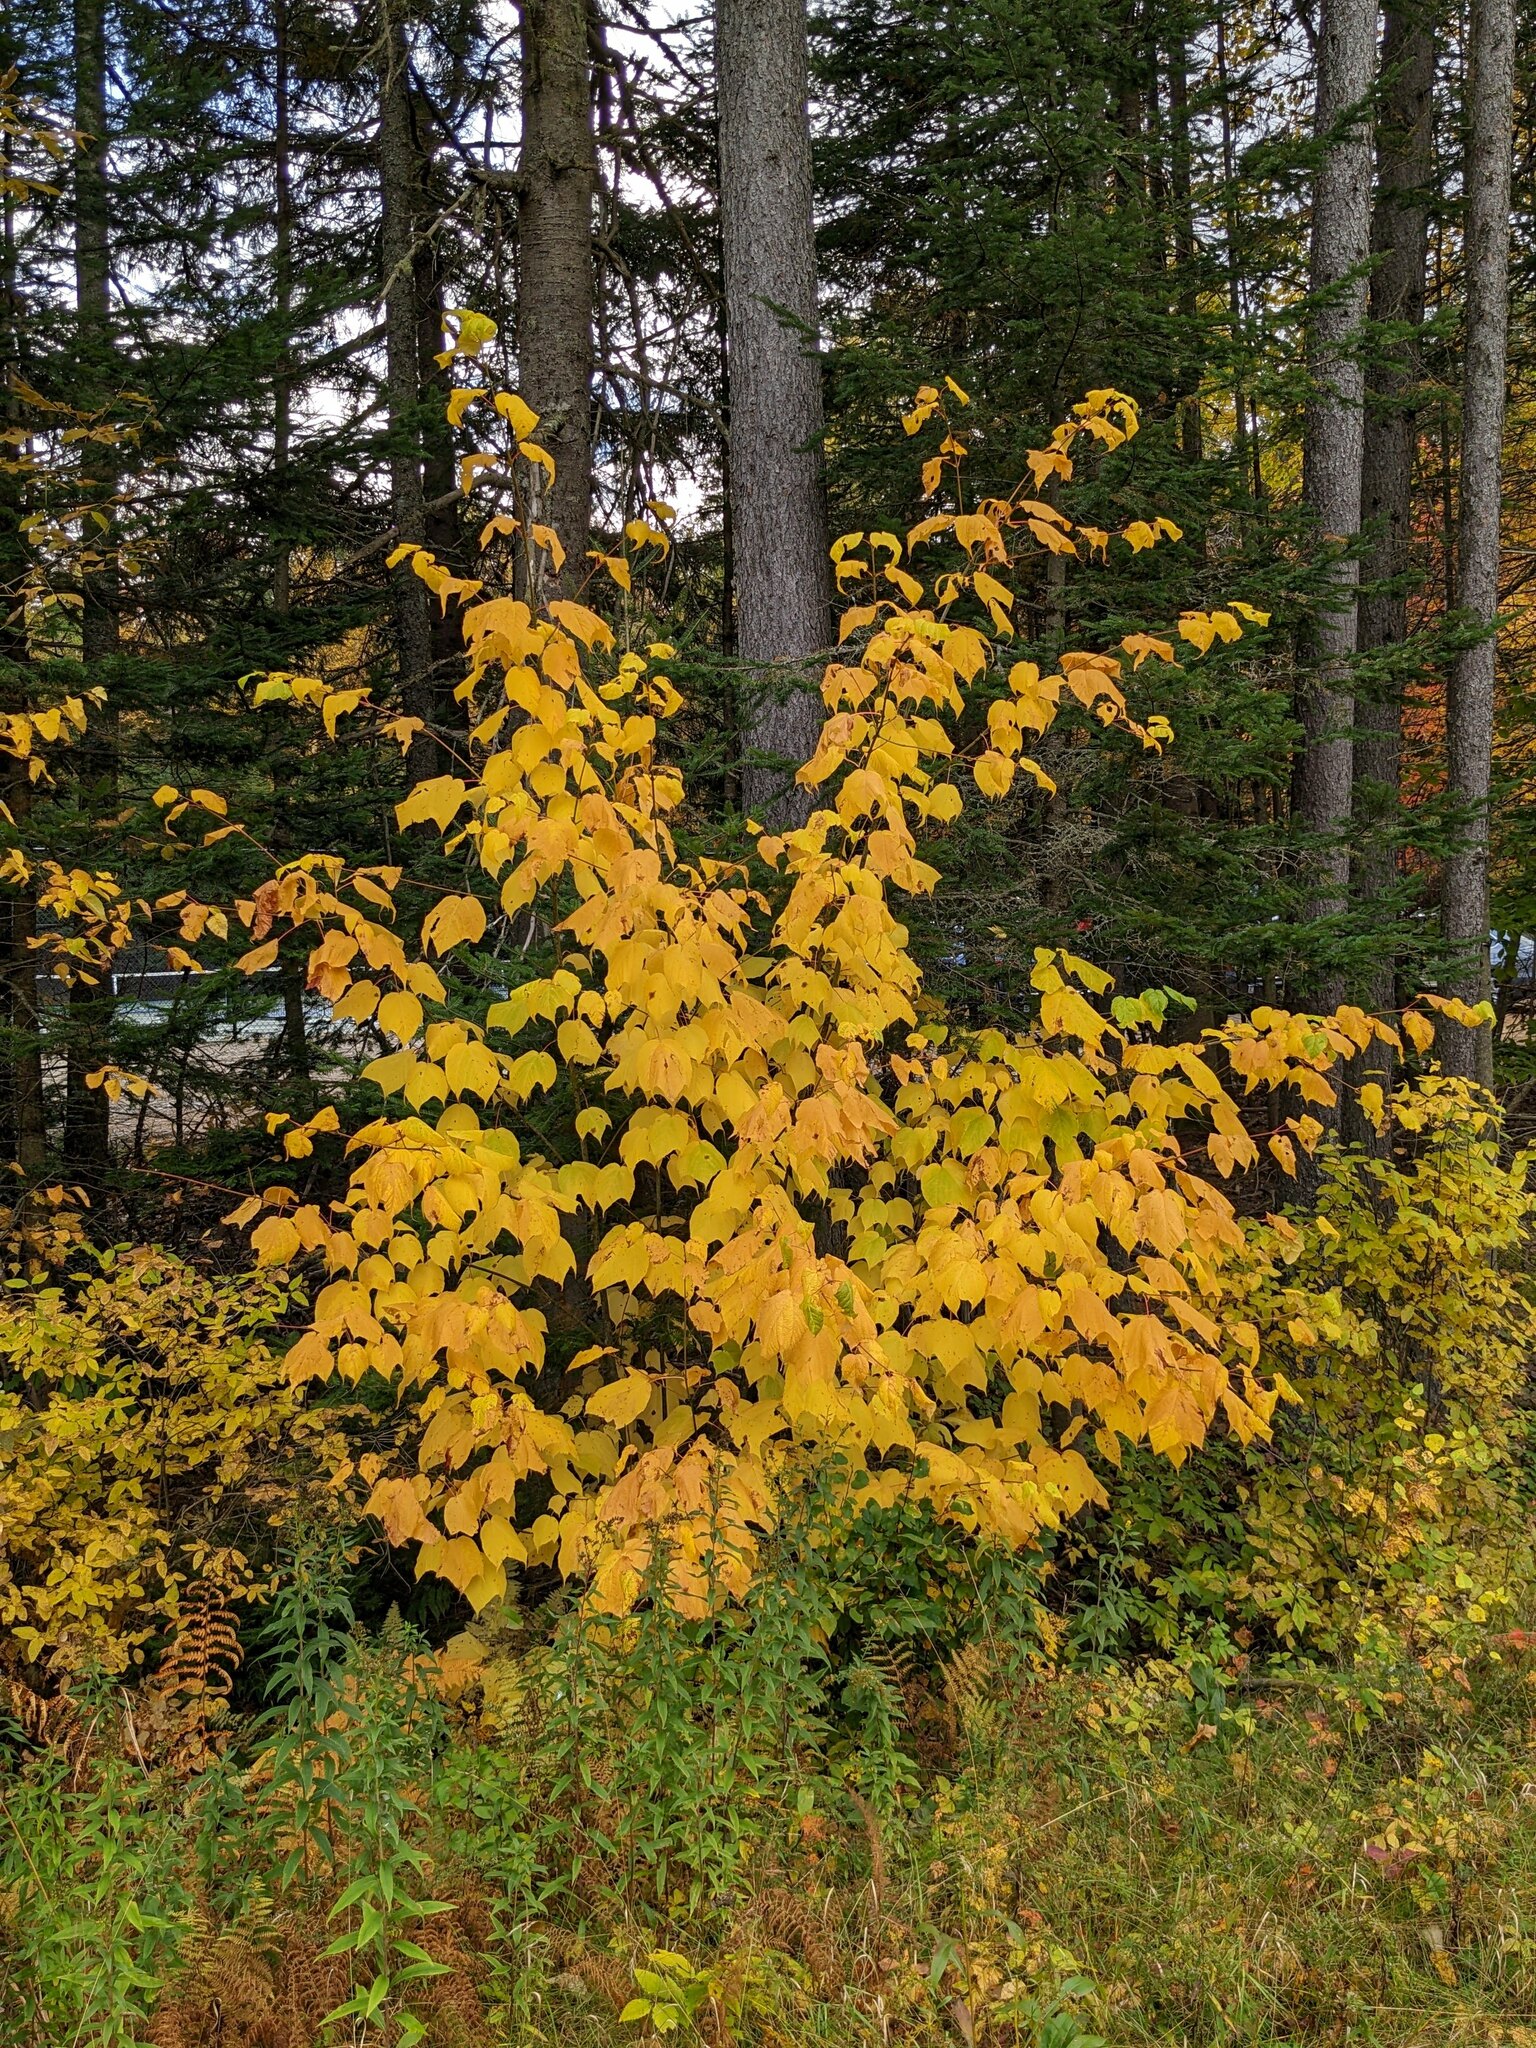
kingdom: Plantae
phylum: Tracheophyta
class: Magnoliopsida
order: Sapindales
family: Sapindaceae
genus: Acer
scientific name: Acer pensylvanicum
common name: Moosewood
